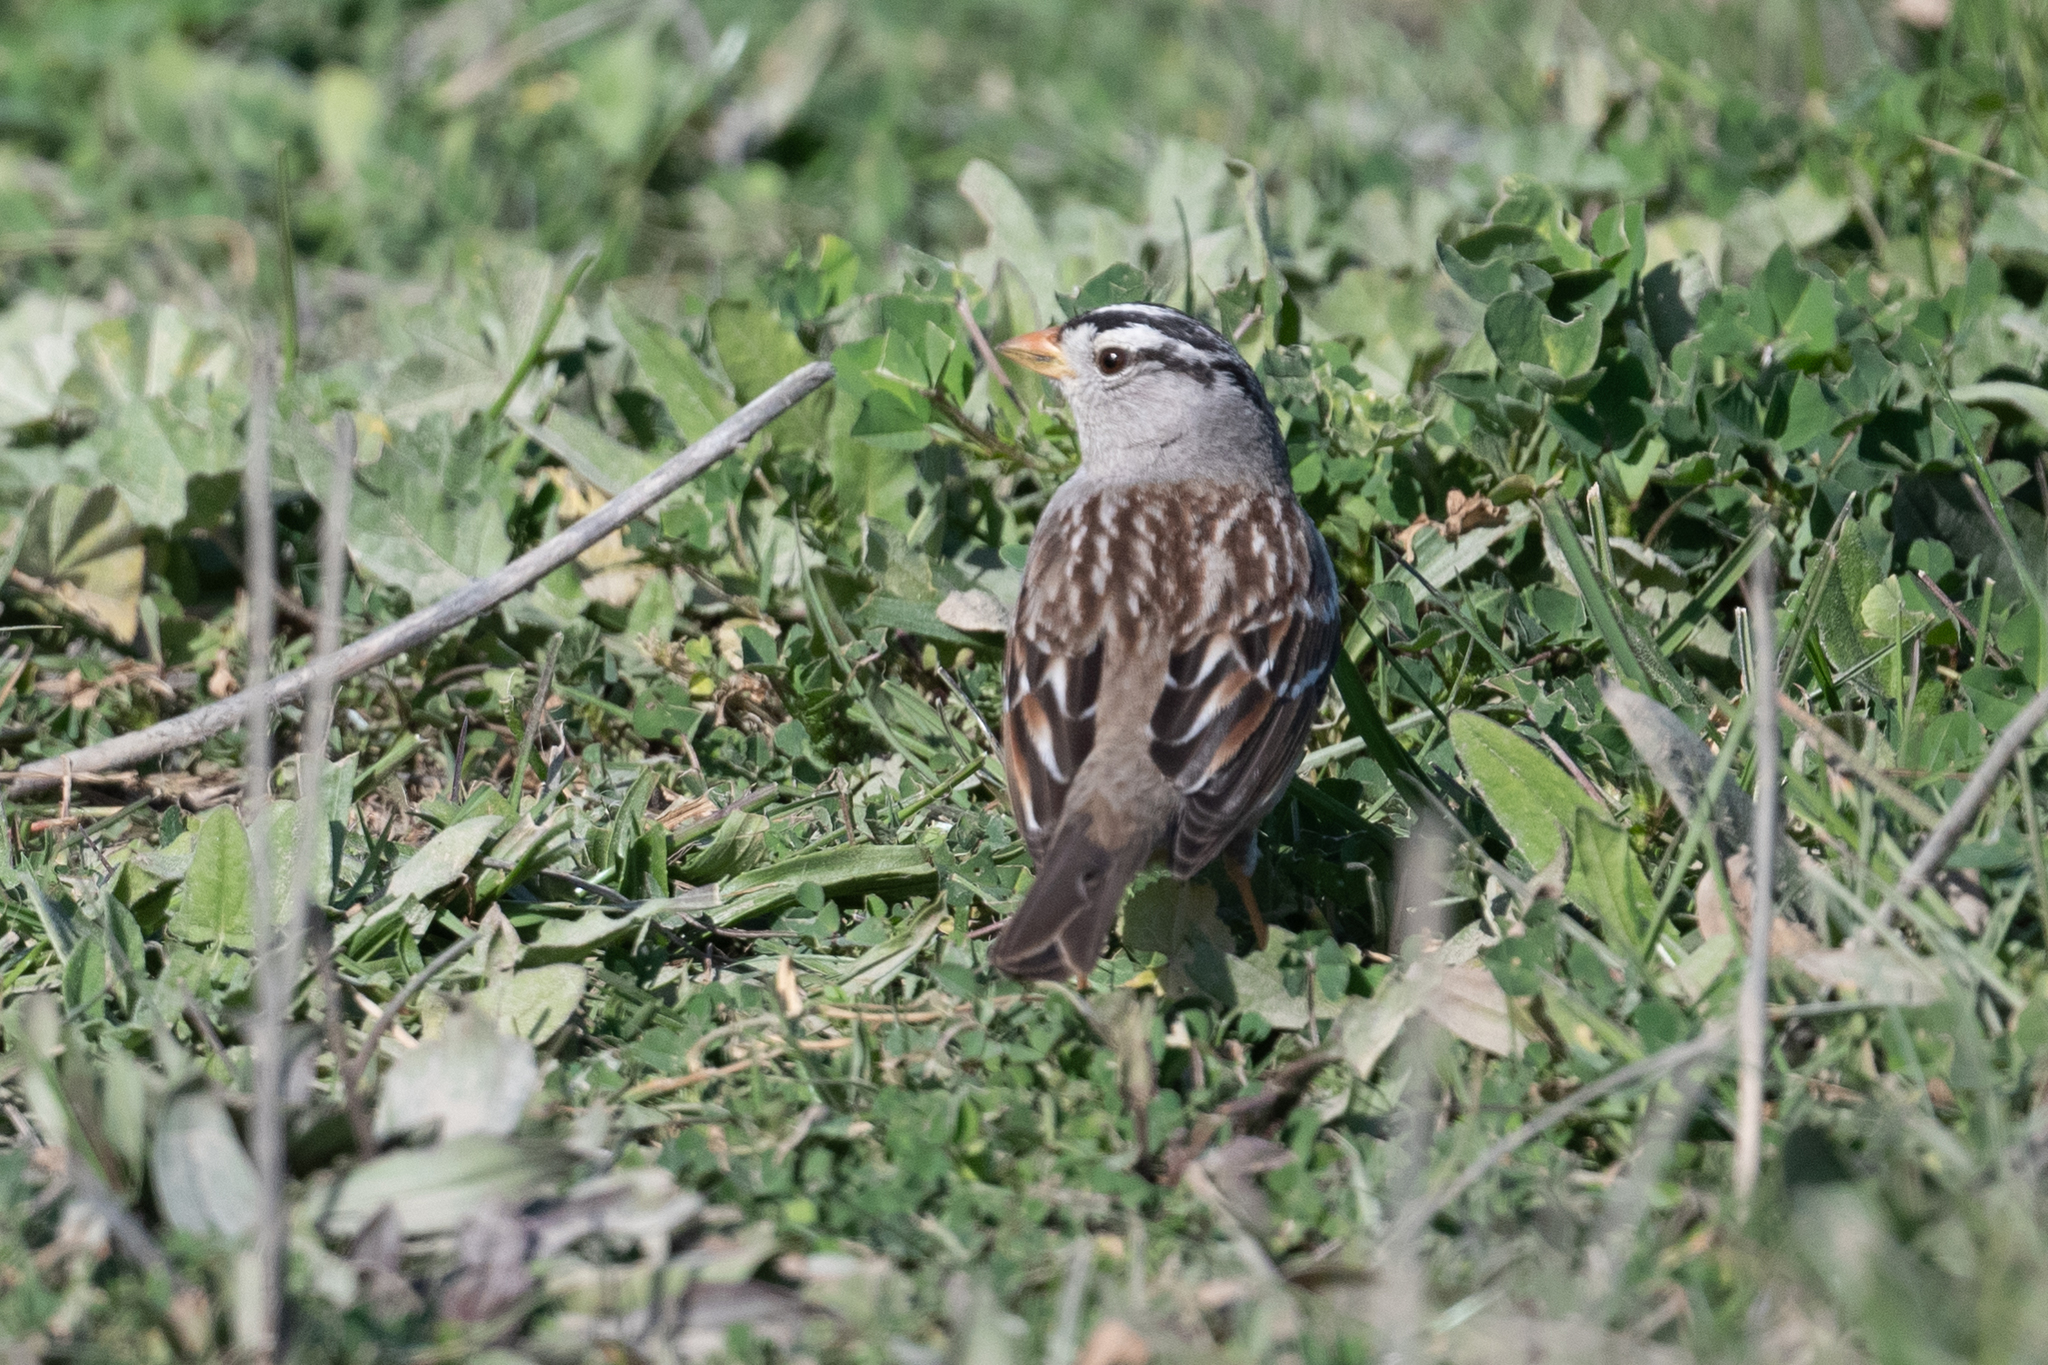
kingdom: Animalia
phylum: Chordata
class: Aves
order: Passeriformes
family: Passerellidae
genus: Zonotrichia
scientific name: Zonotrichia leucophrys
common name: White-crowned sparrow
